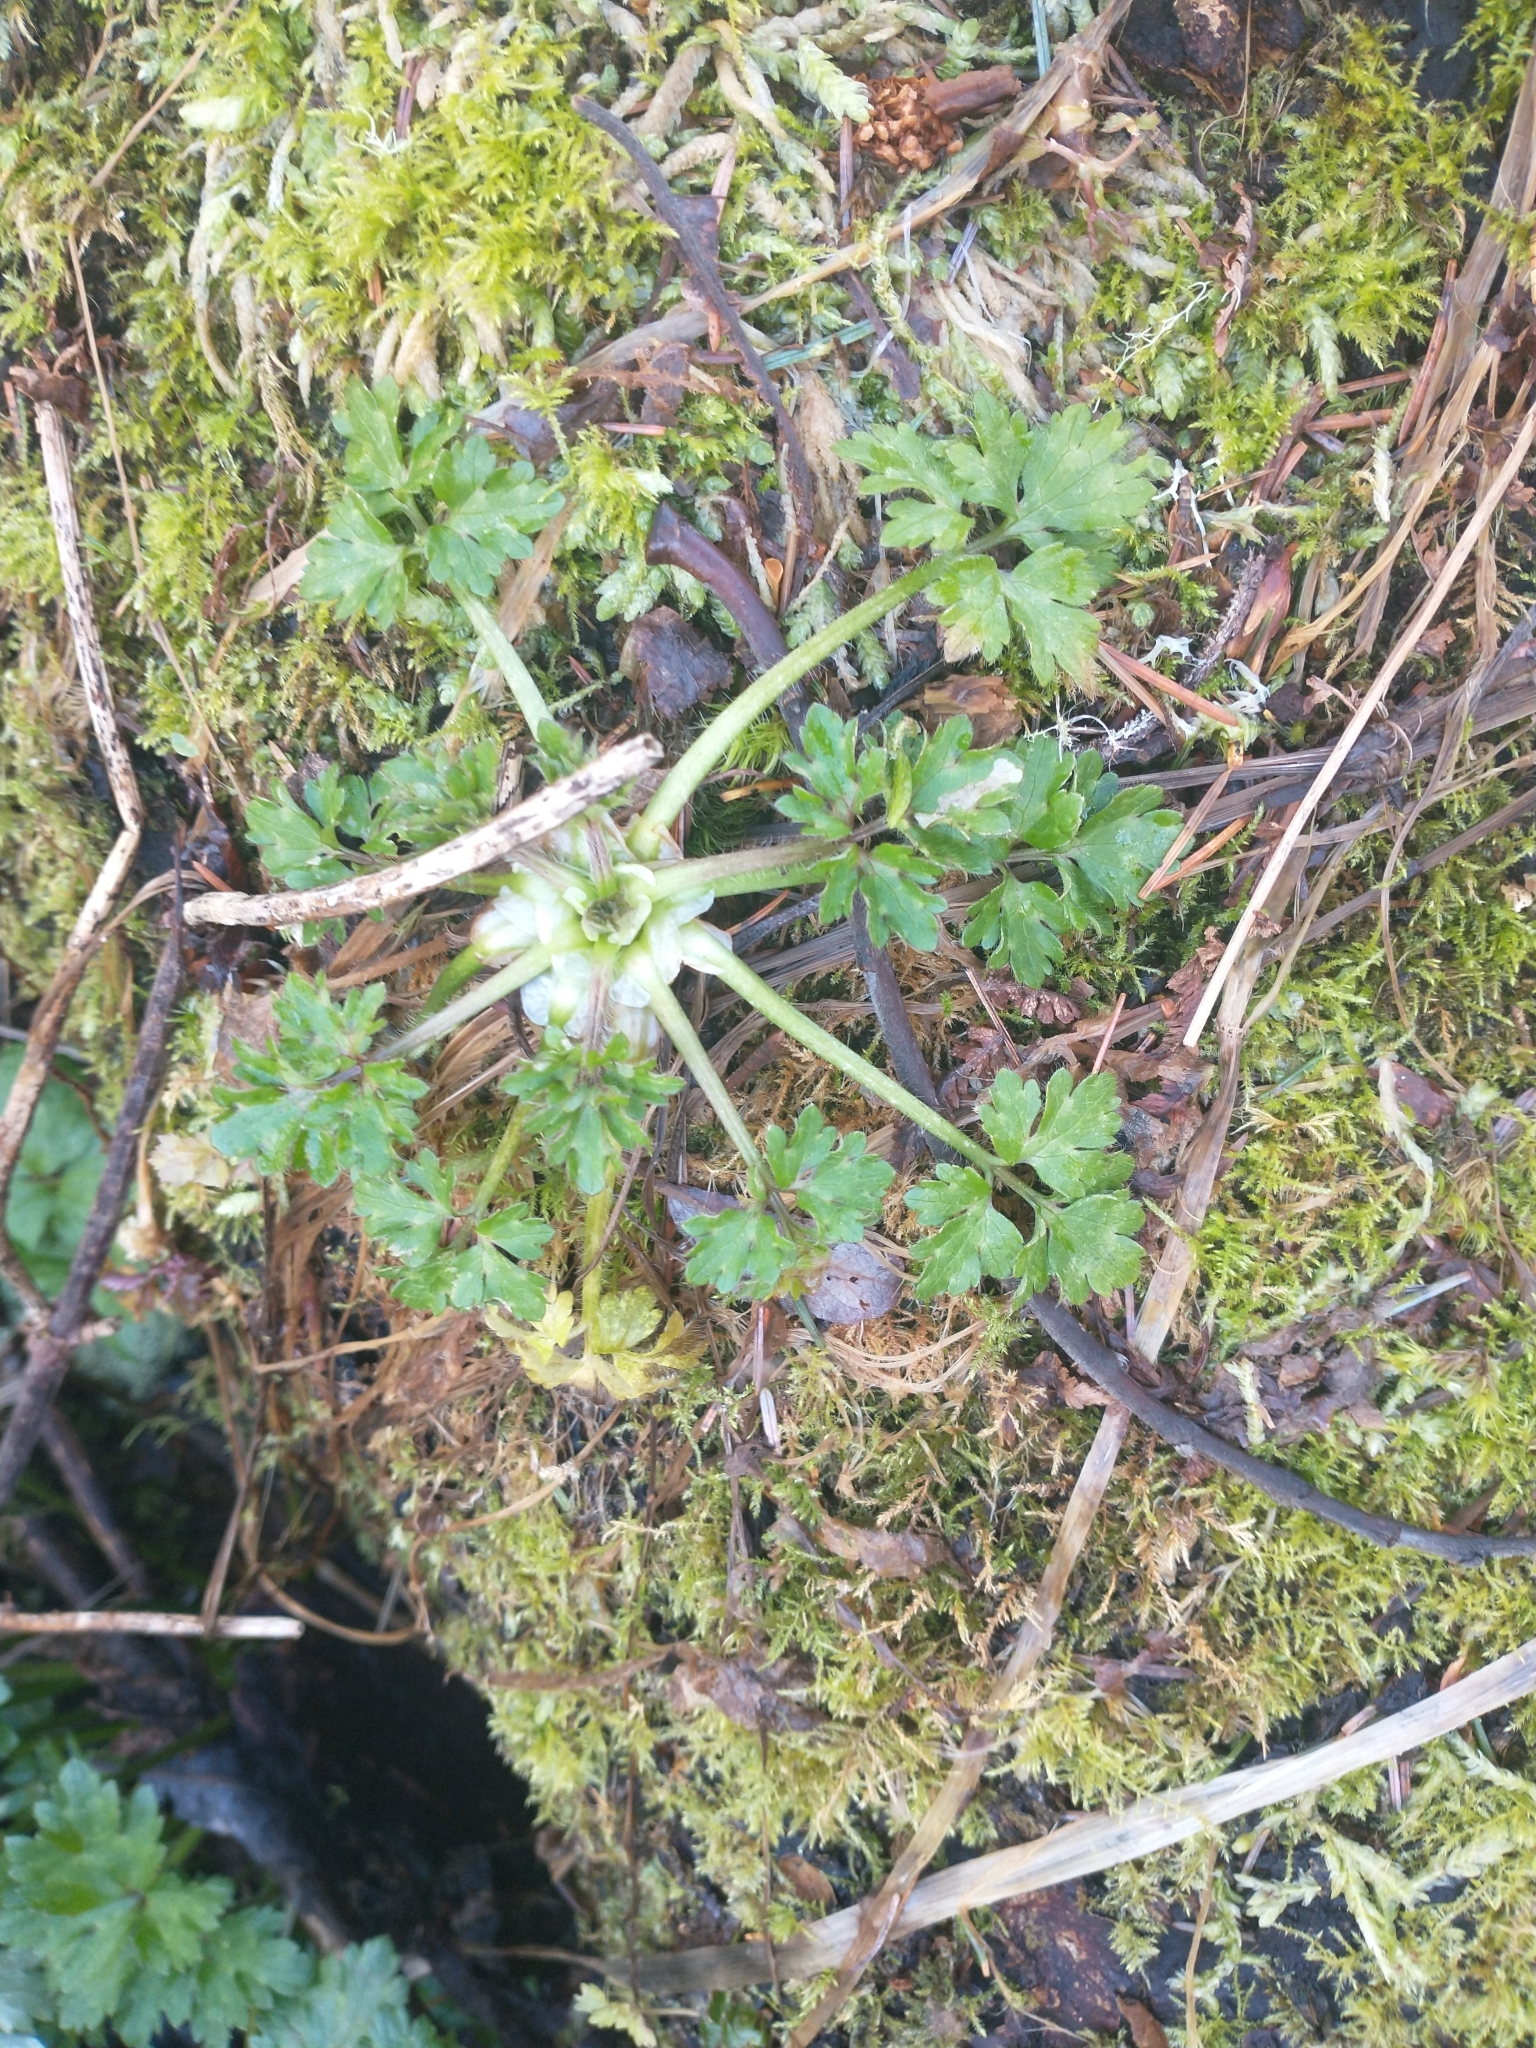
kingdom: Plantae
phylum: Tracheophyta
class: Magnoliopsida
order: Ranunculales
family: Ranunculaceae
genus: Ranunculus
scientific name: Ranunculus repens
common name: Creeping buttercup
